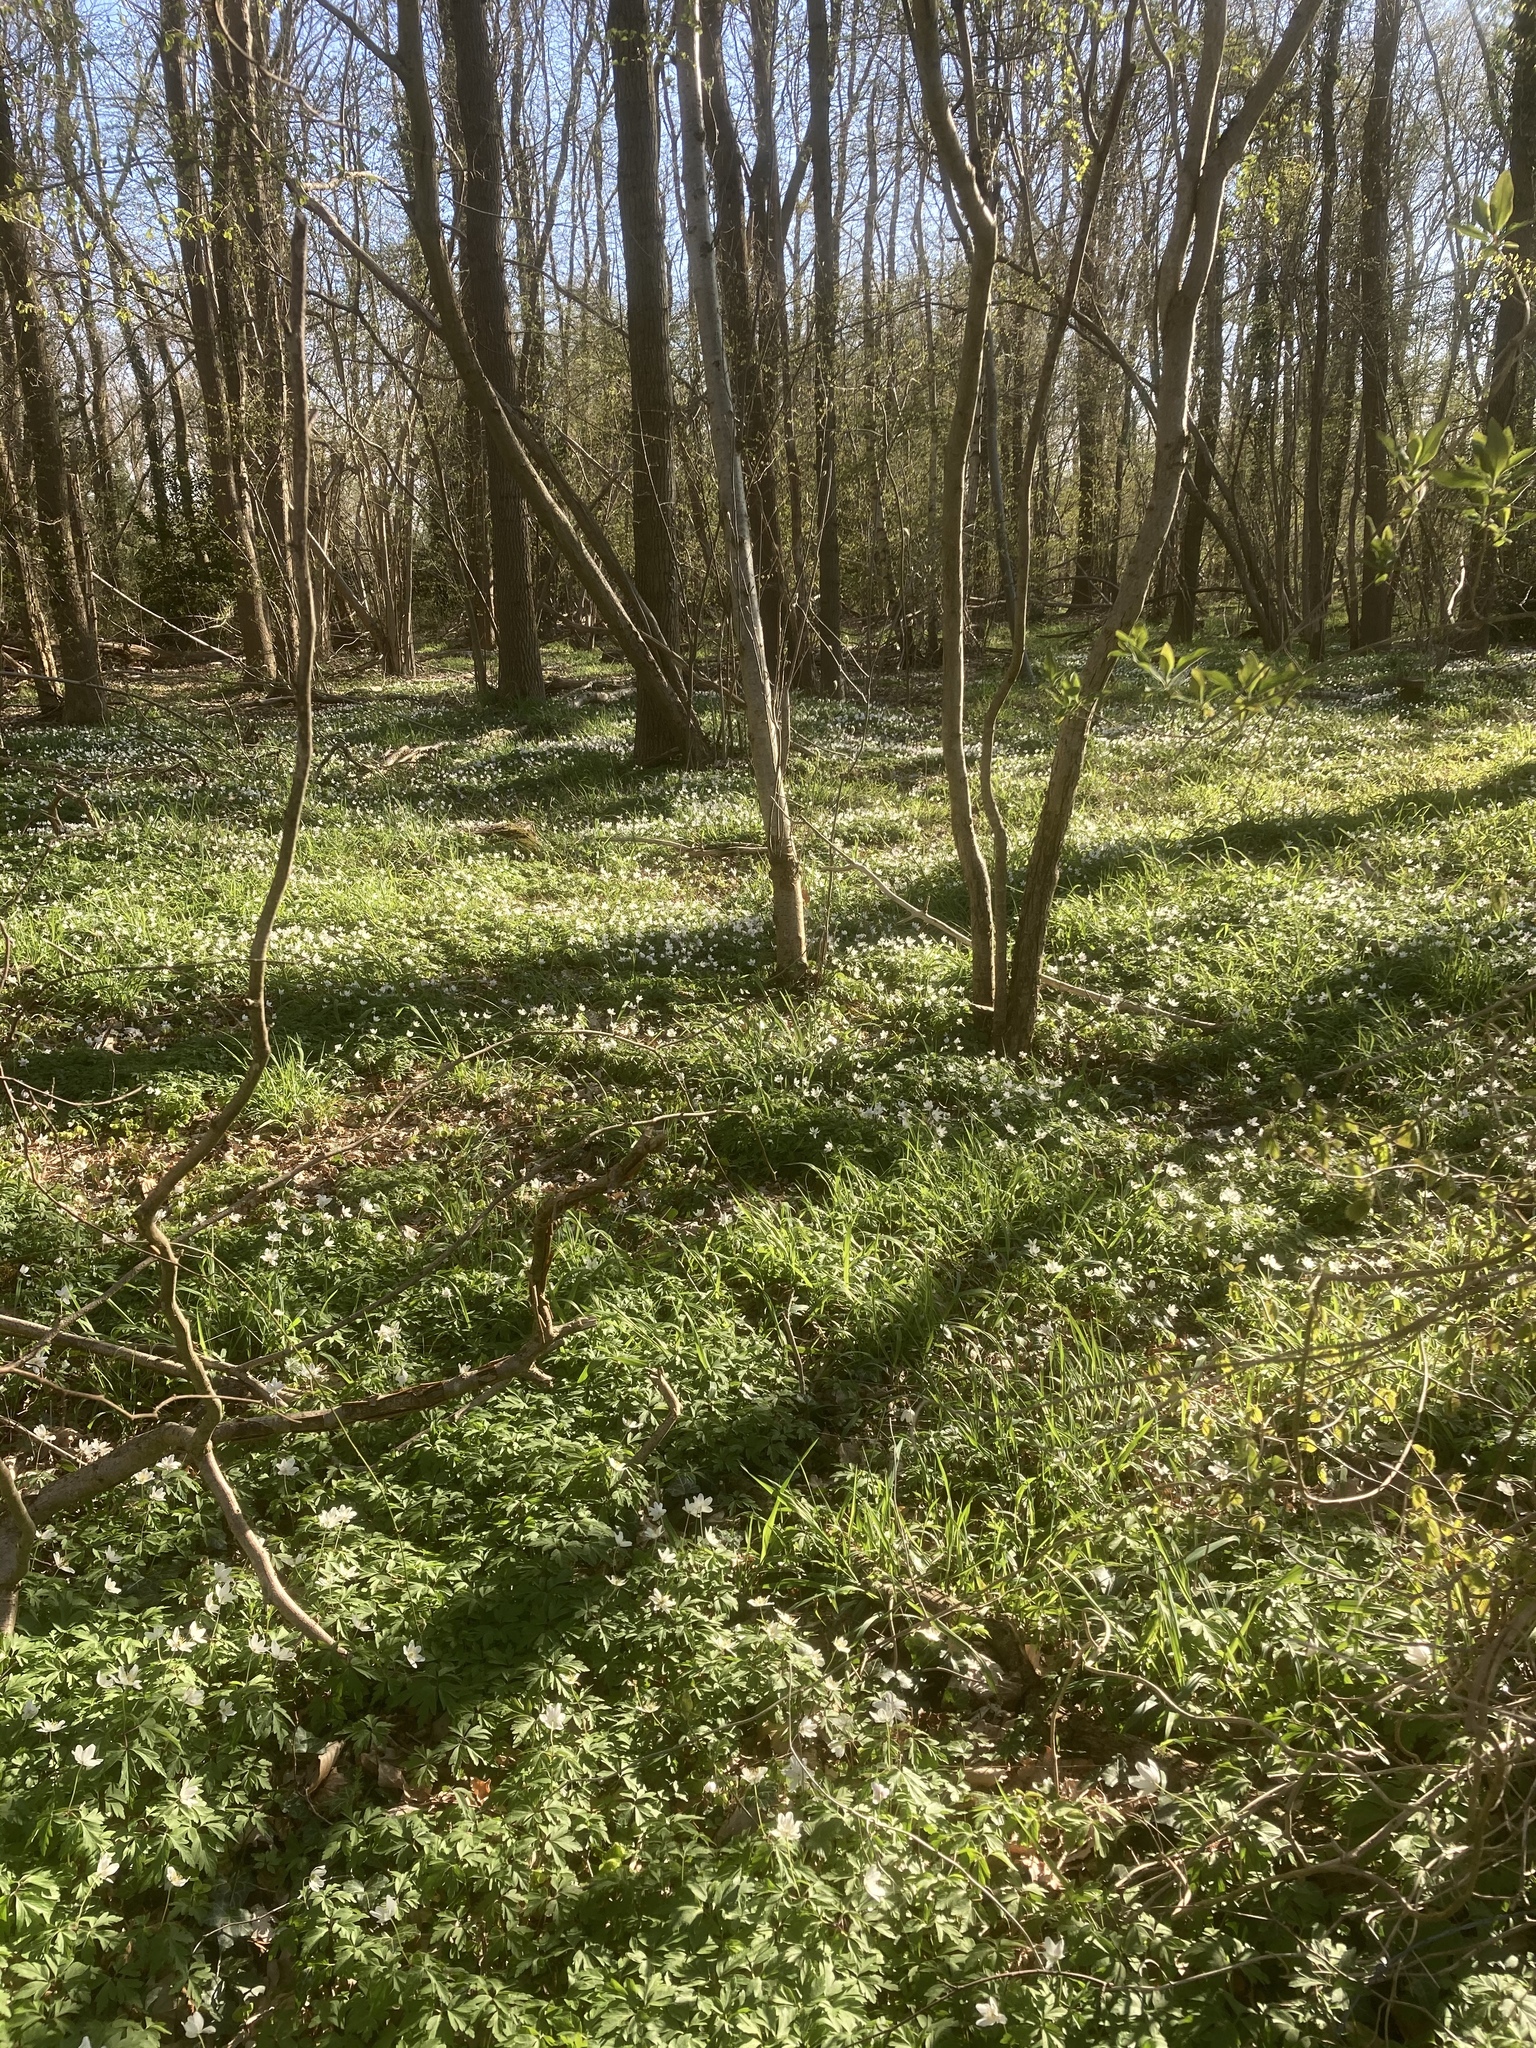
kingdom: Plantae
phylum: Tracheophyta
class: Magnoliopsida
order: Ranunculales
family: Ranunculaceae
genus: Anemone
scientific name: Anemone nemorosa
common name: Wood anemone
